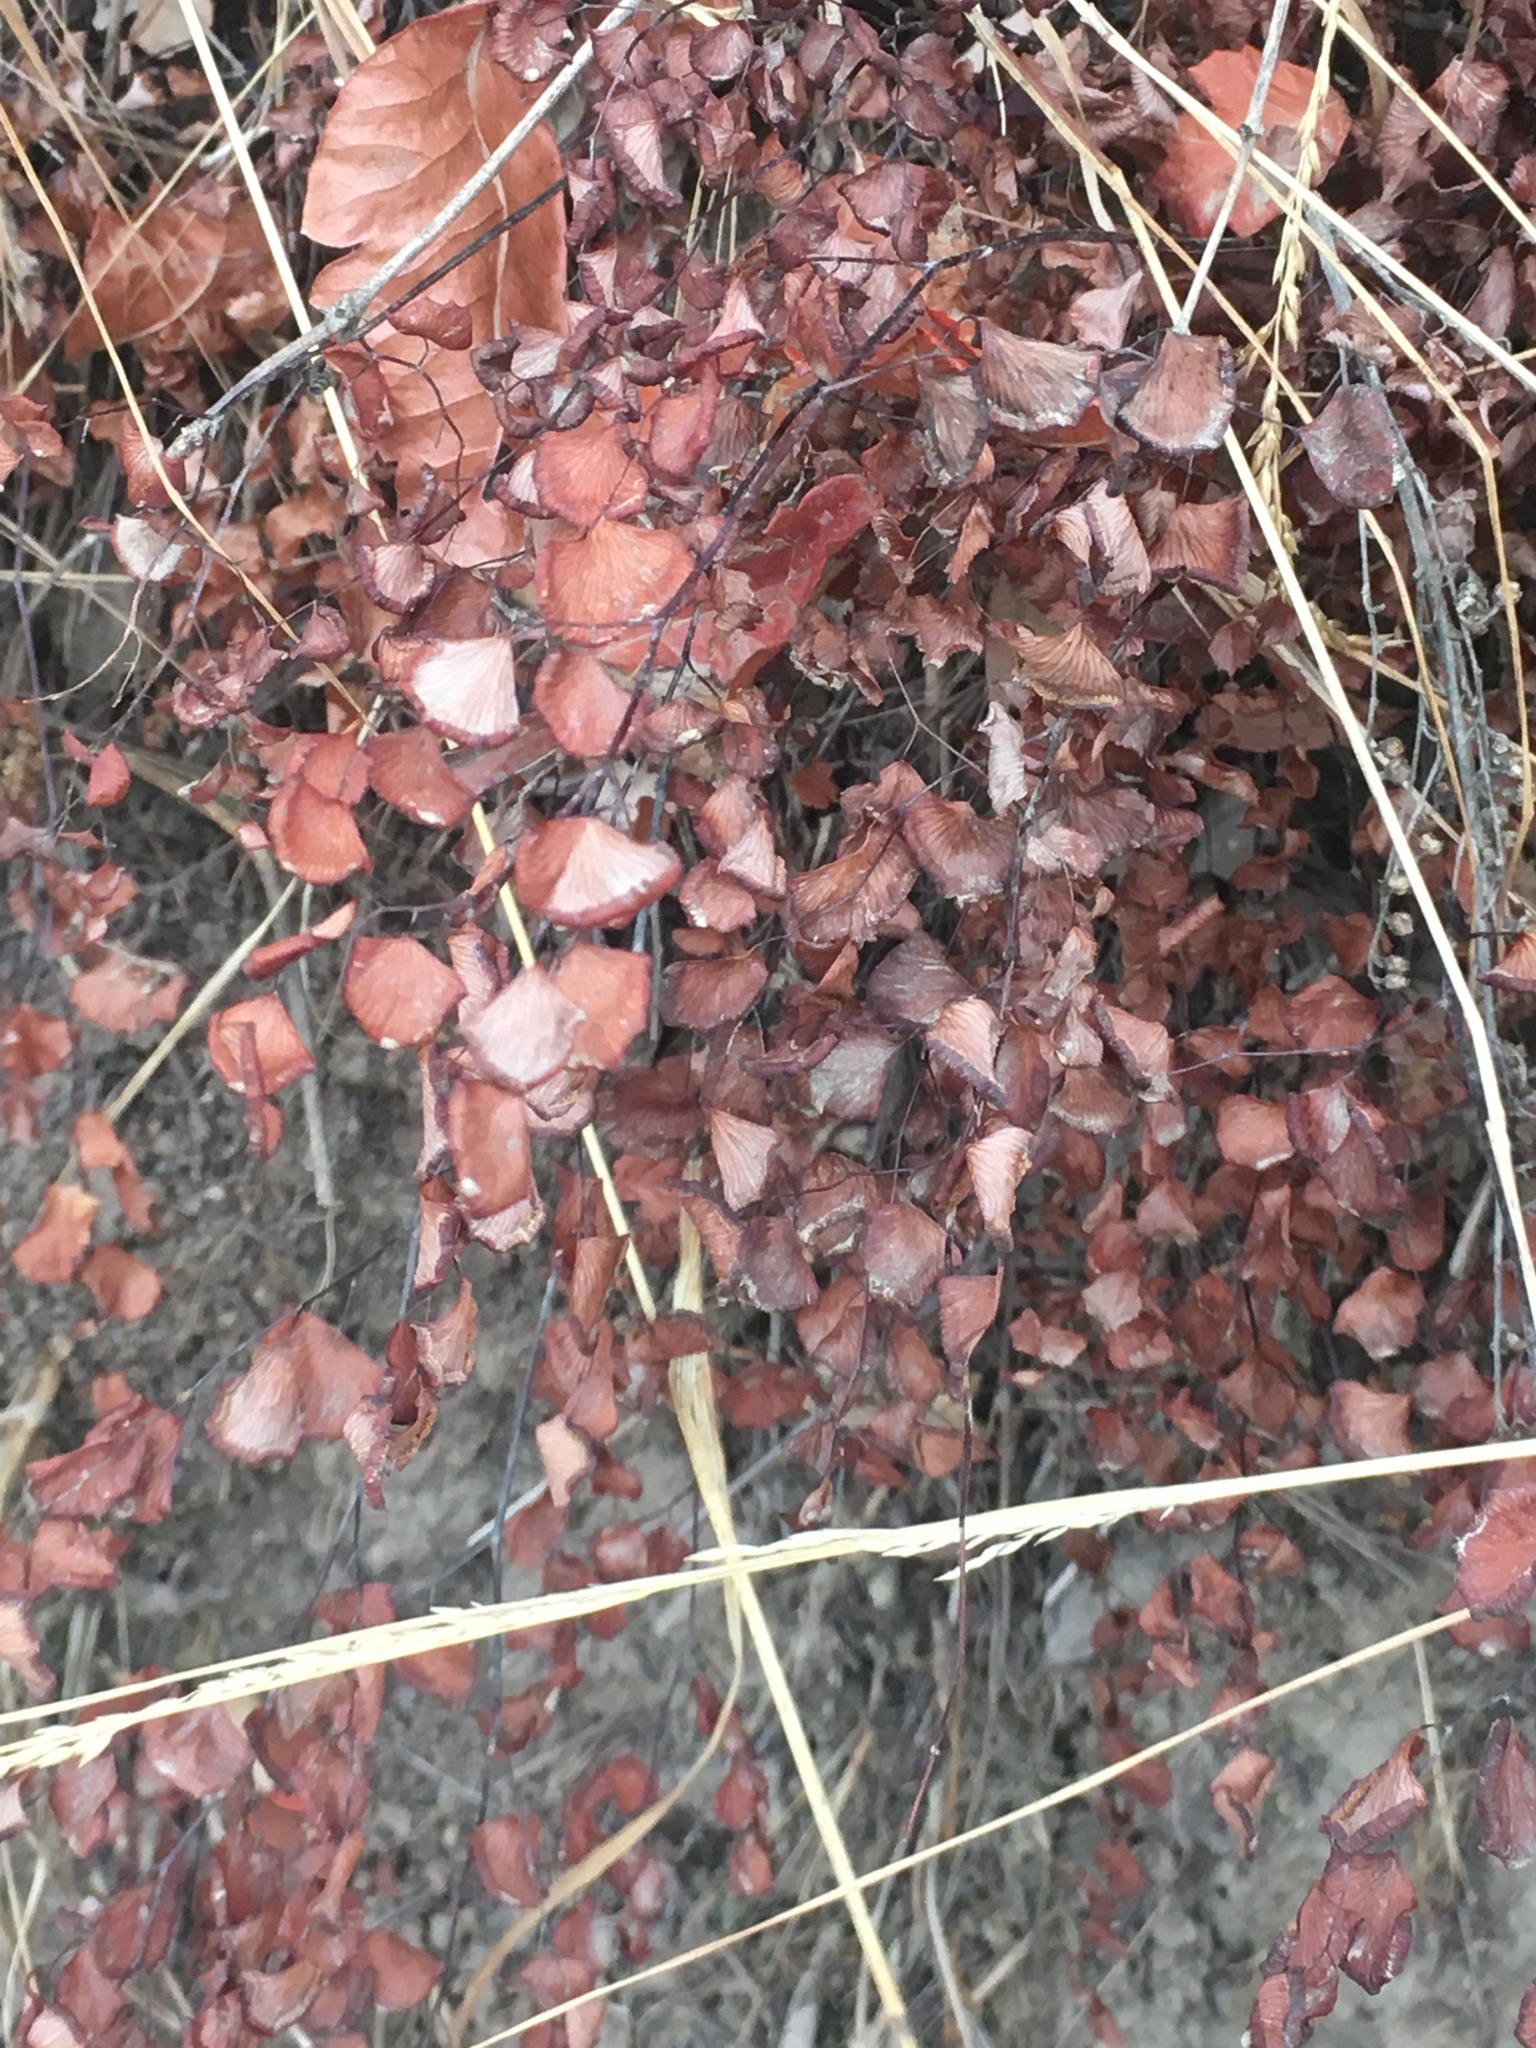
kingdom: Plantae
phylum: Tracheophyta
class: Polypodiopsida
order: Polypodiales
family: Pteridaceae
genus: Adiantum
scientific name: Adiantum jordanii
